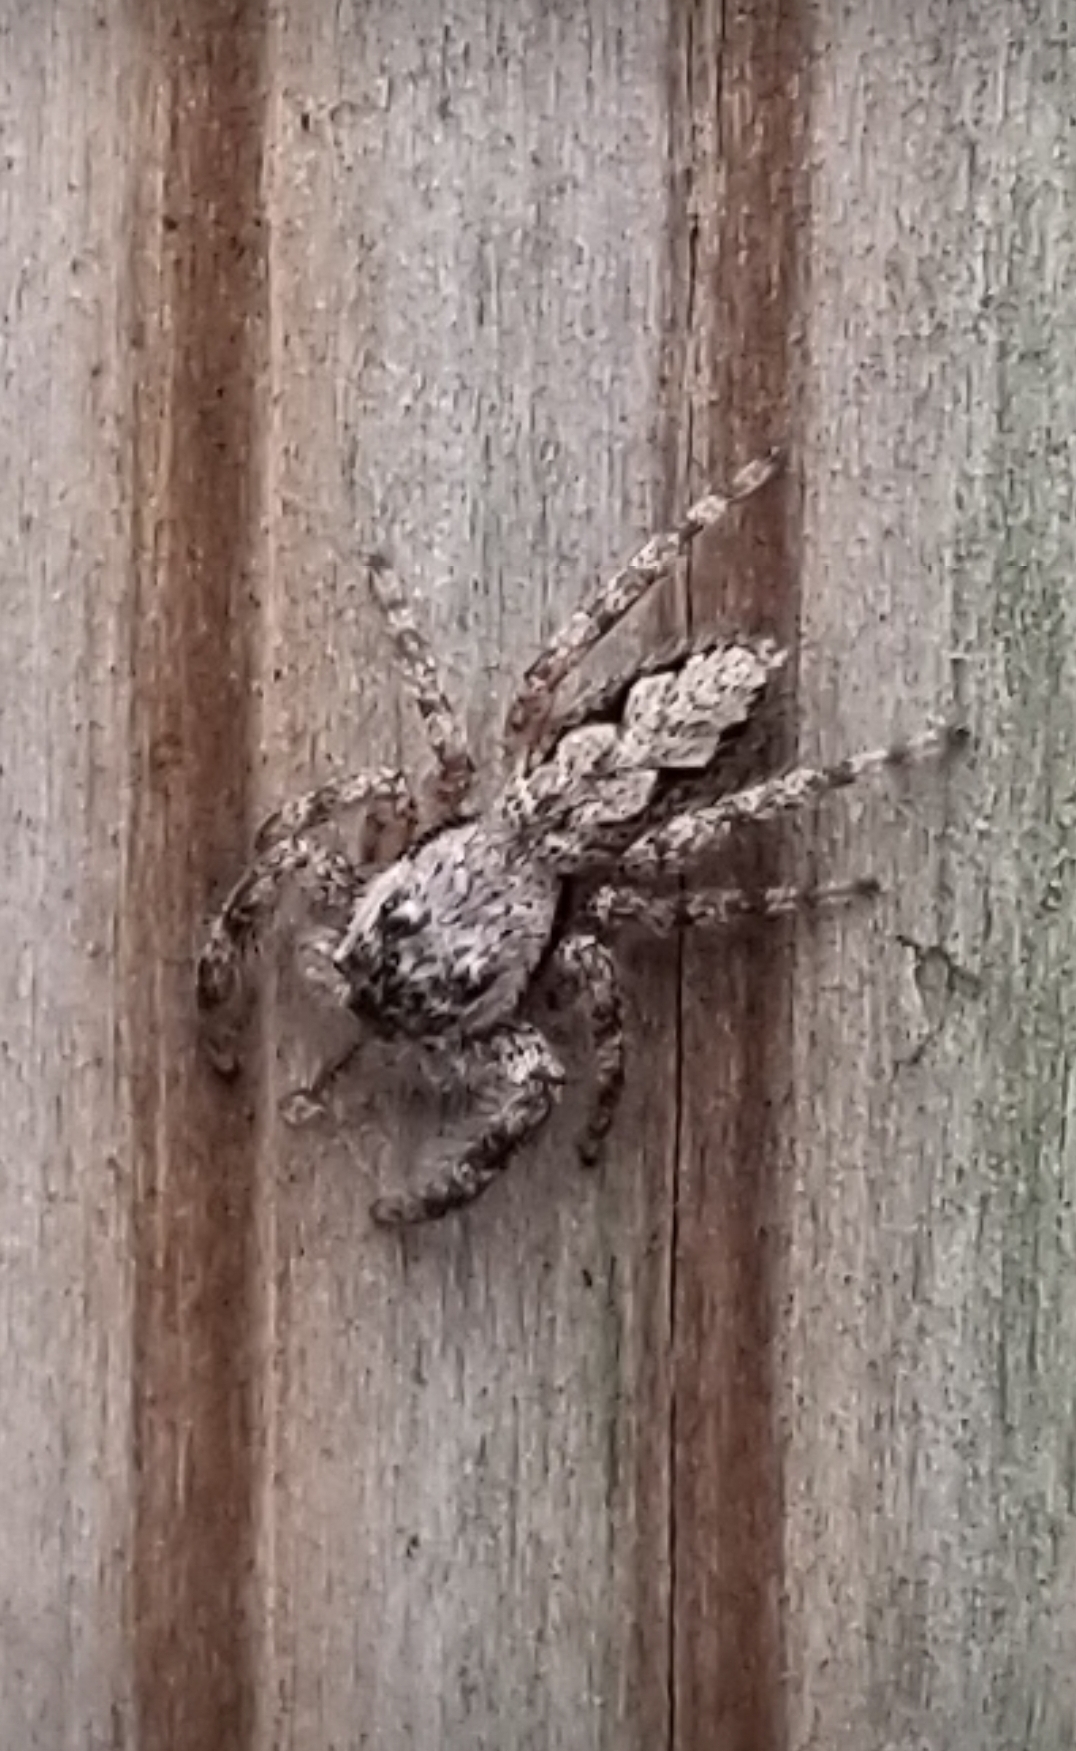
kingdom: Animalia
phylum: Arthropoda
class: Arachnida
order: Araneae
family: Salticidae
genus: Platycryptus
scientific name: Platycryptus undatus
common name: Tan jumping spider
